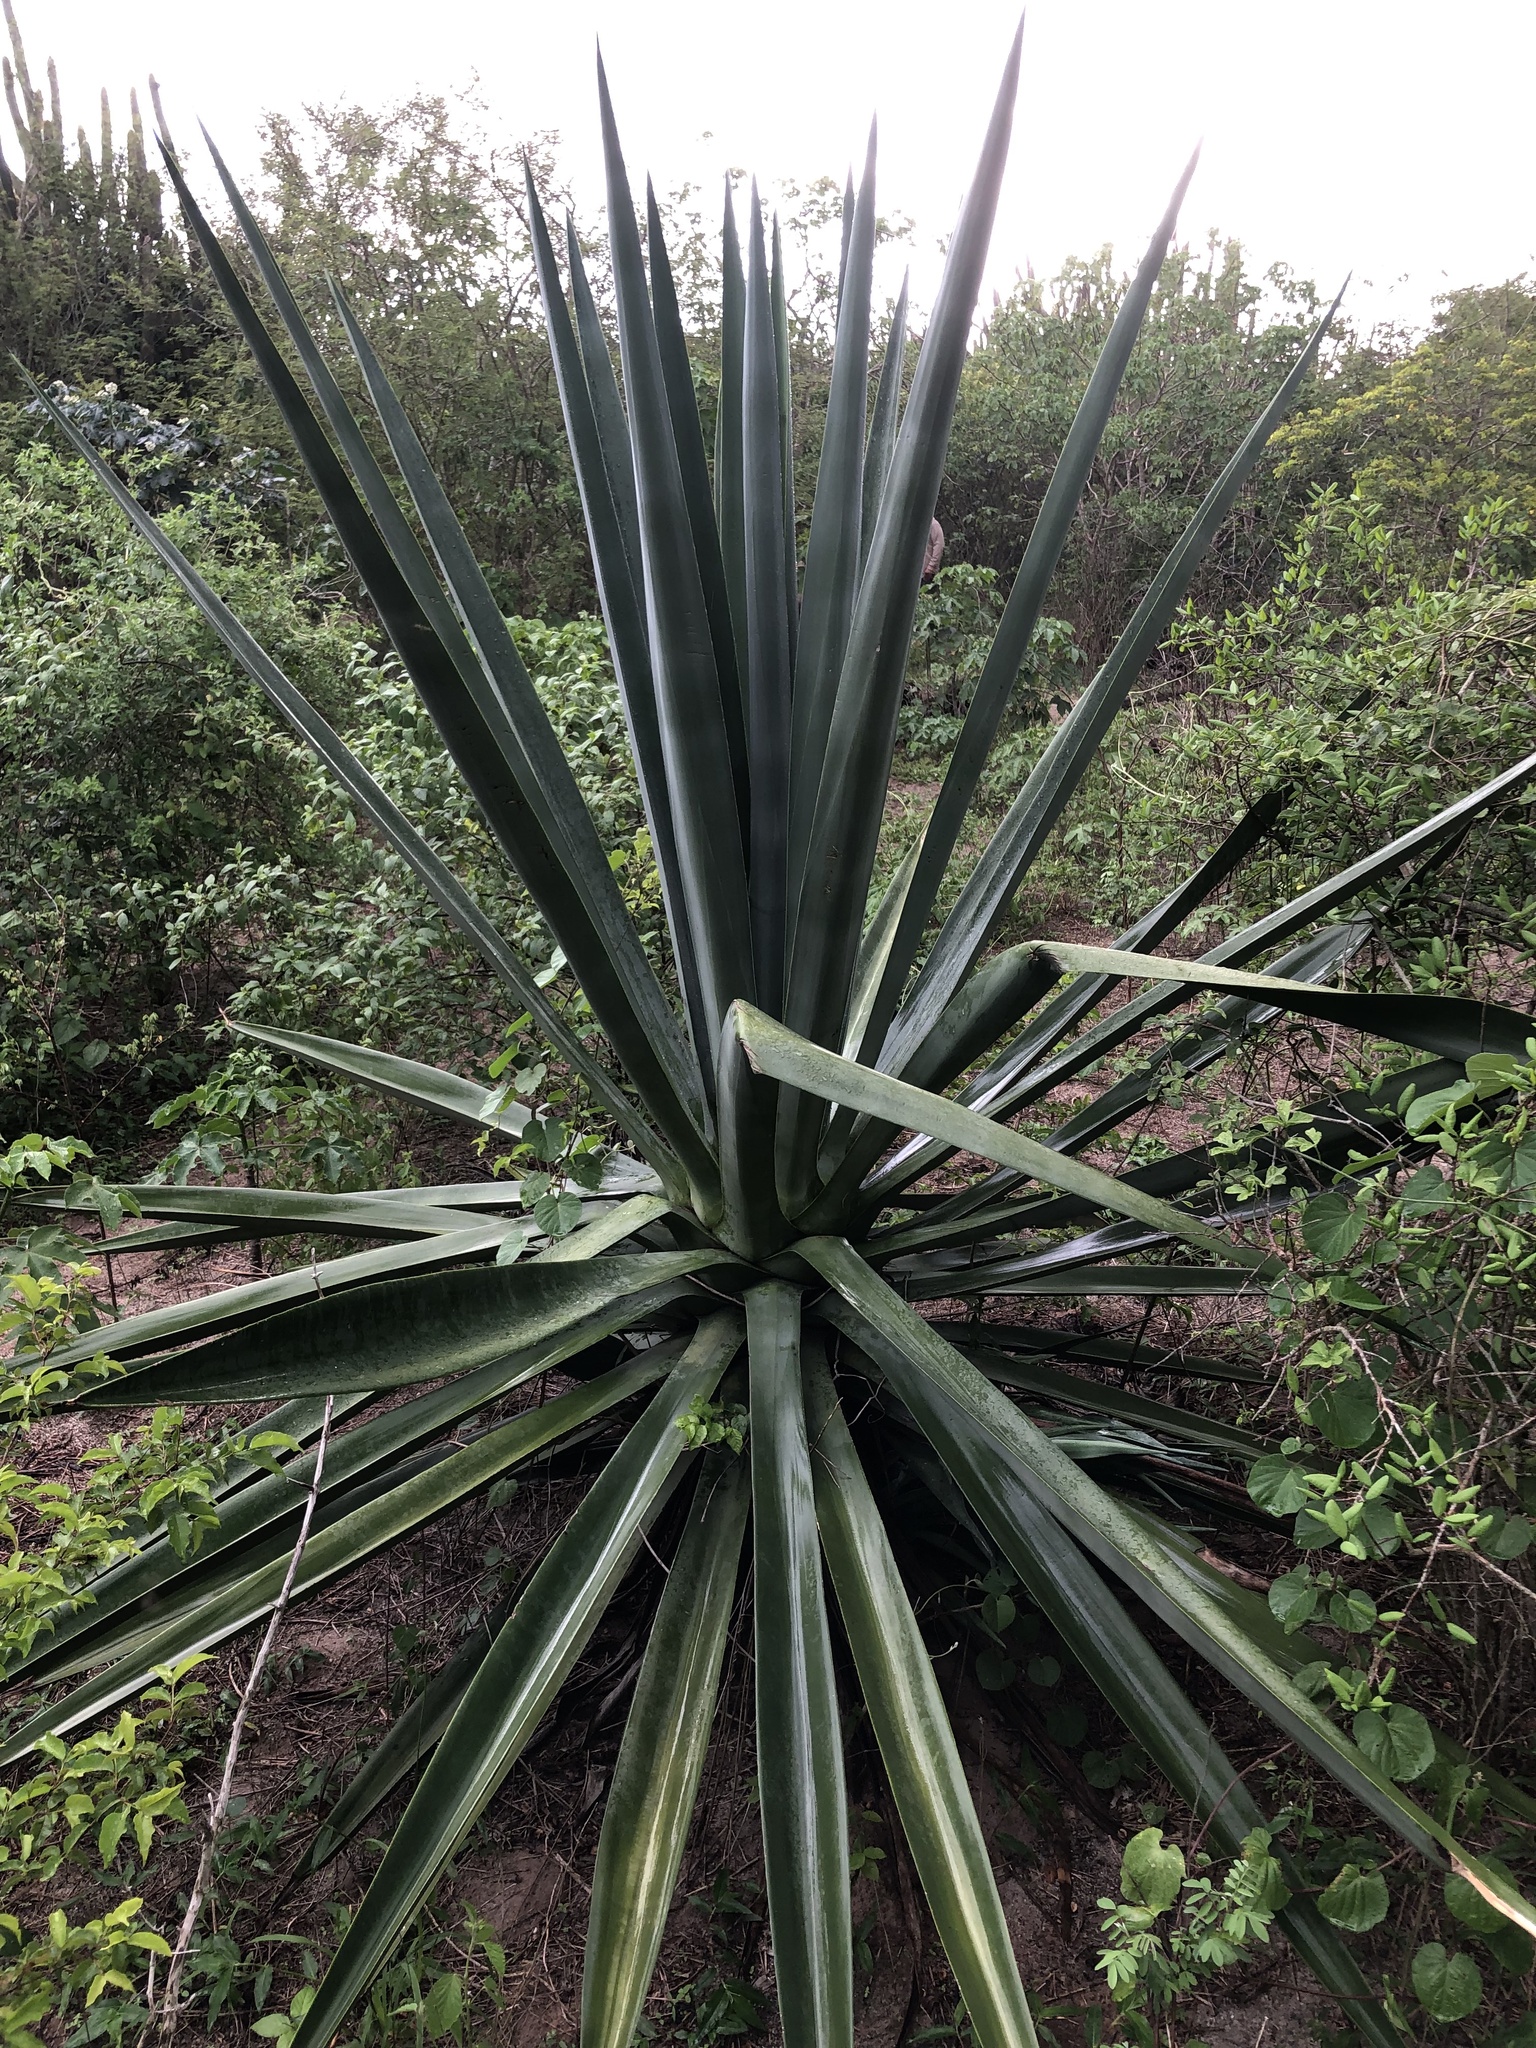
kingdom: Plantae
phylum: Tracheophyta
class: Liliopsida
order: Asparagales
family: Asparagaceae
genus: Furcraea
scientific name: Furcraea foetida
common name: Mauritius hemp
